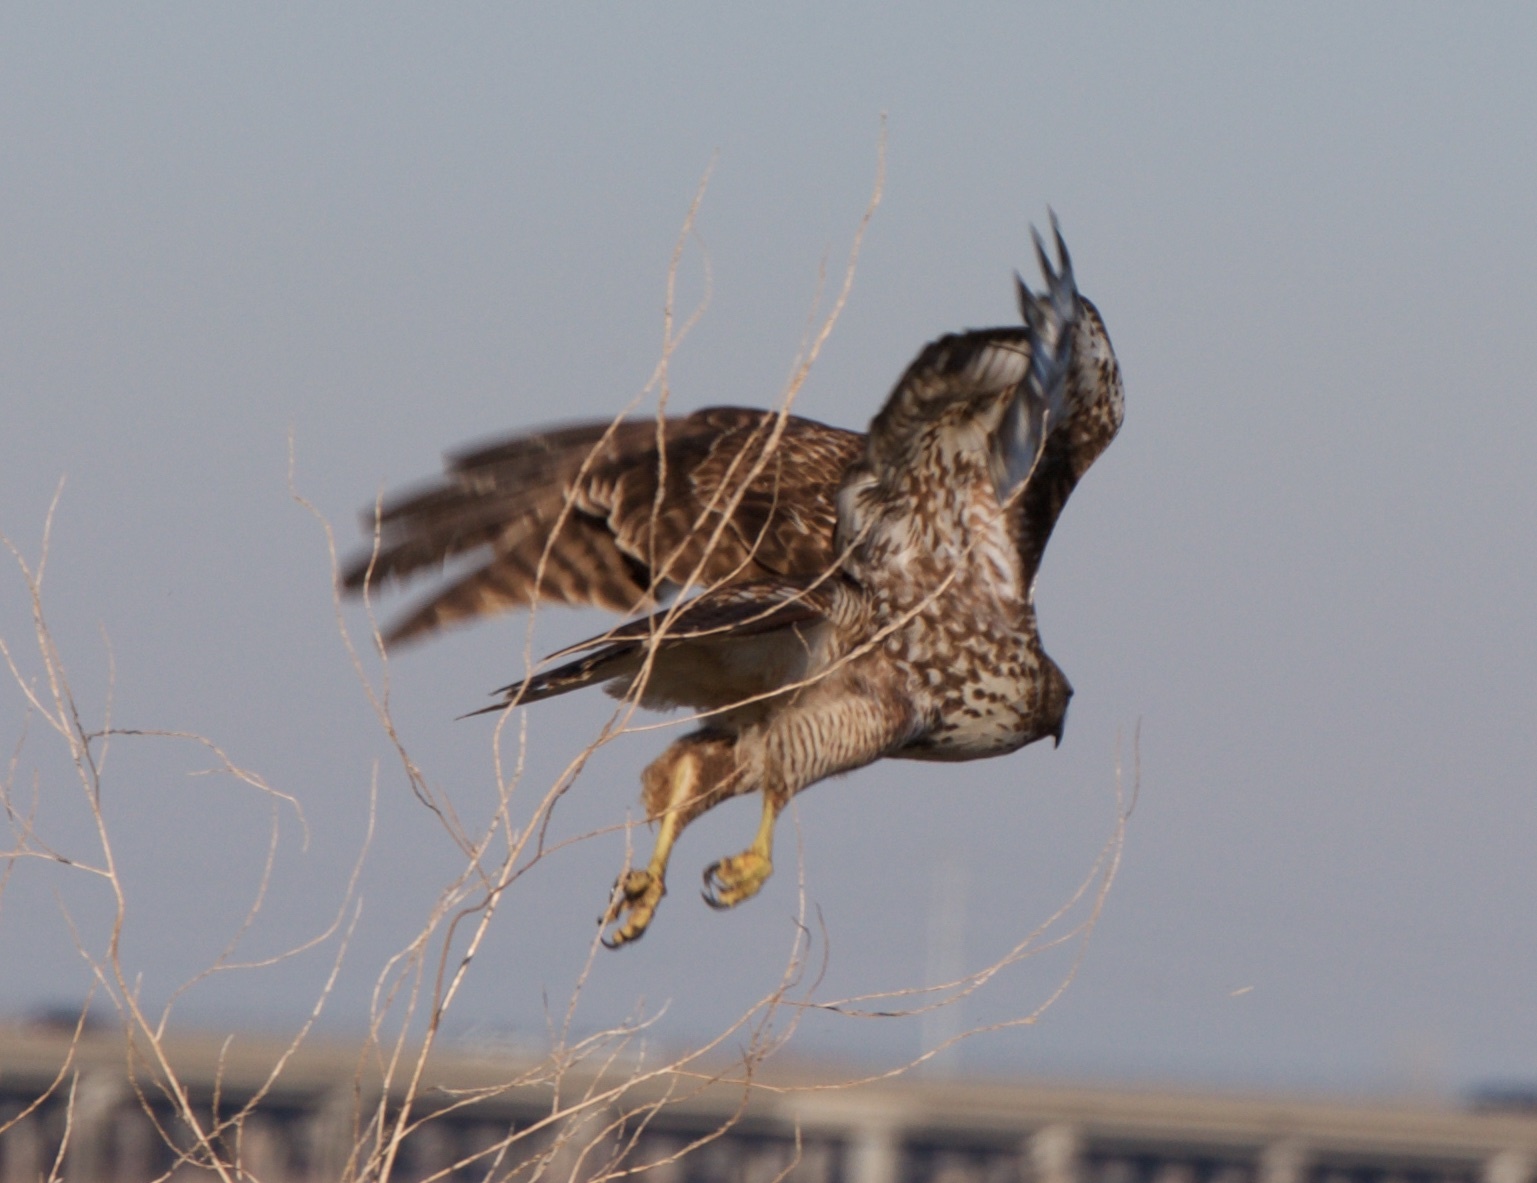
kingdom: Animalia
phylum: Chordata
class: Aves
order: Accipitriformes
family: Accipitridae
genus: Buteo
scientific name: Buteo jamaicensis
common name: Red-tailed hawk
